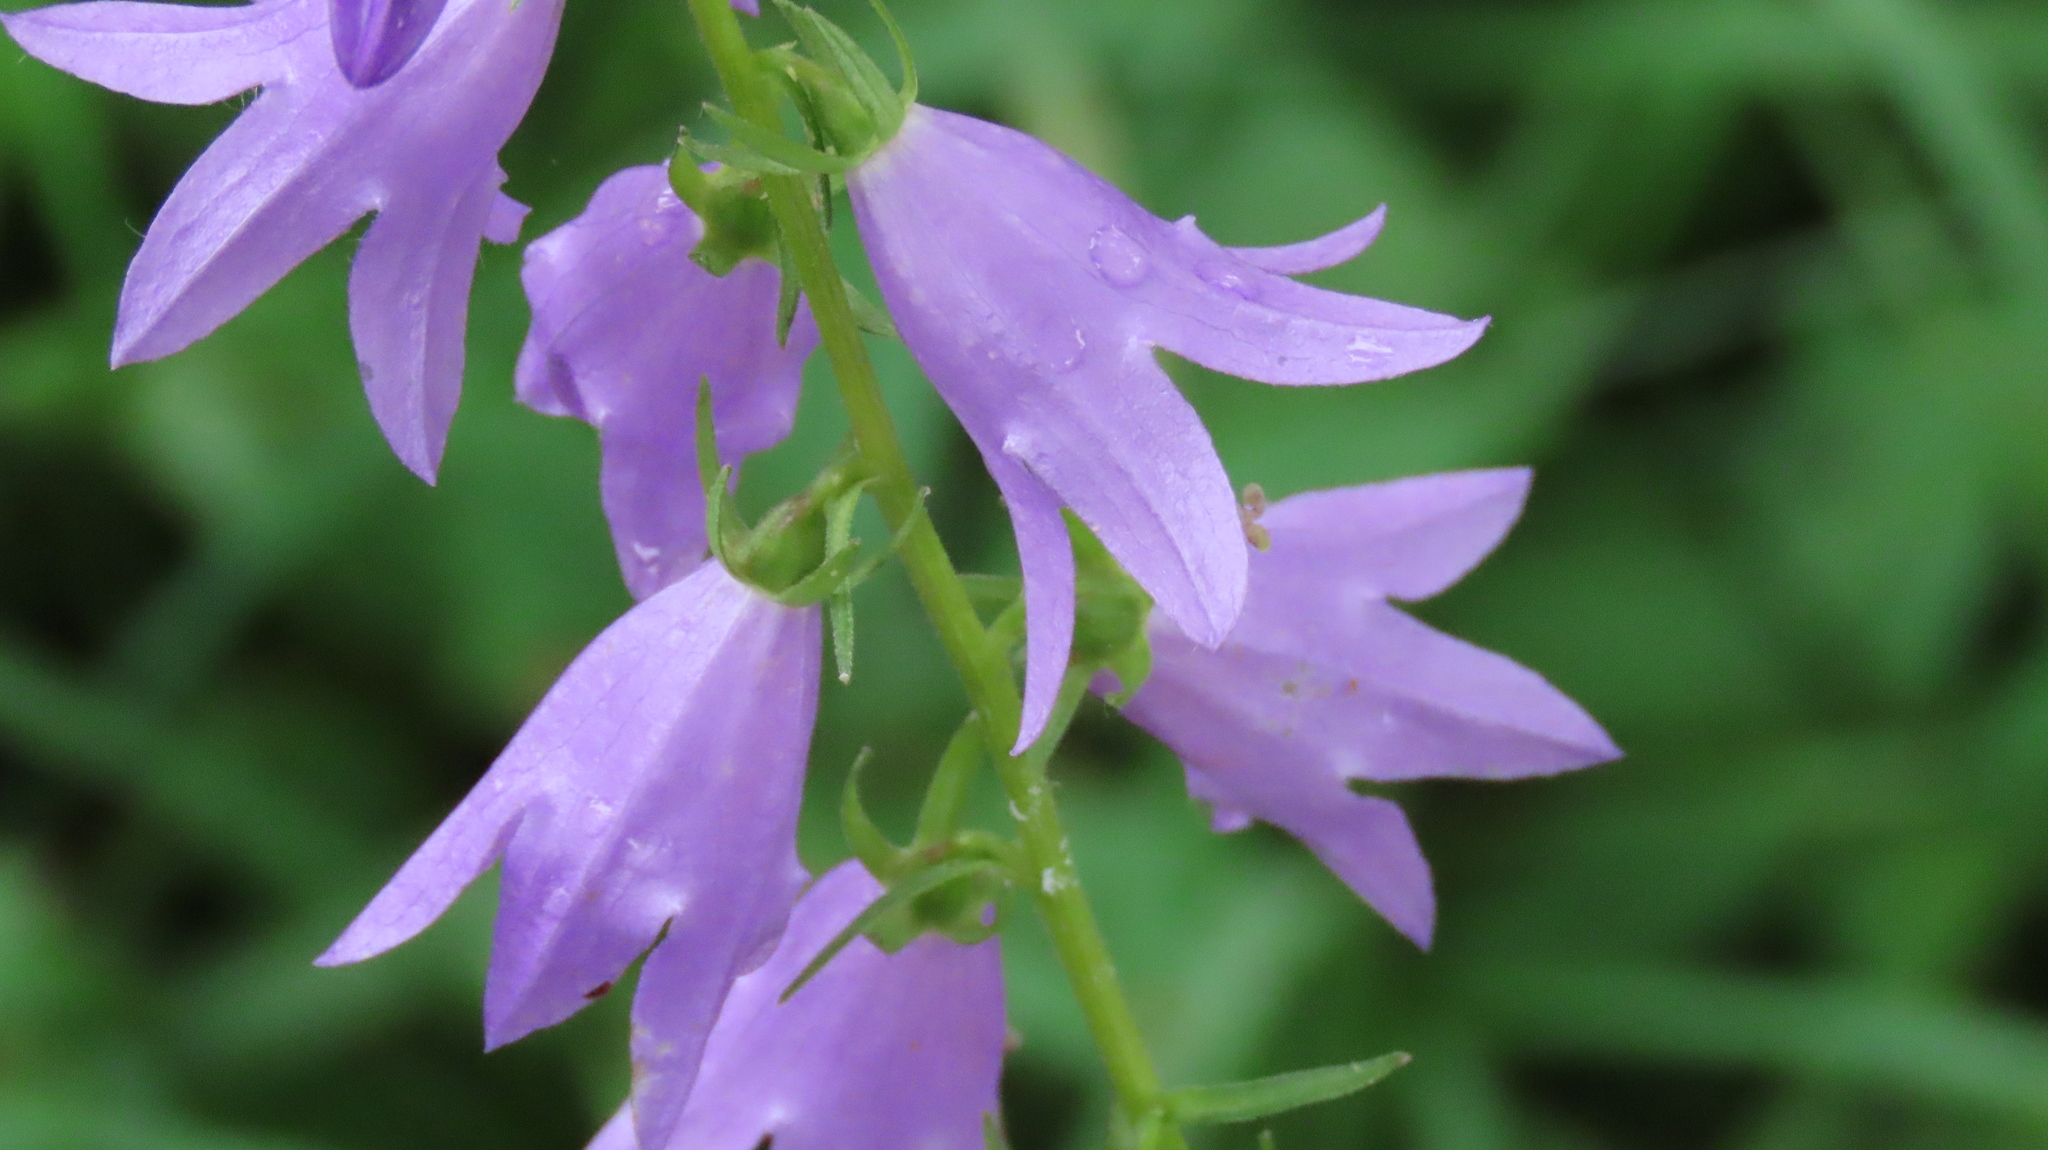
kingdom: Plantae
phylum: Tracheophyta
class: Magnoliopsida
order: Asterales
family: Campanulaceae
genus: Campanula
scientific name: Campanula rapunculoides
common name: Creeping bellflower
